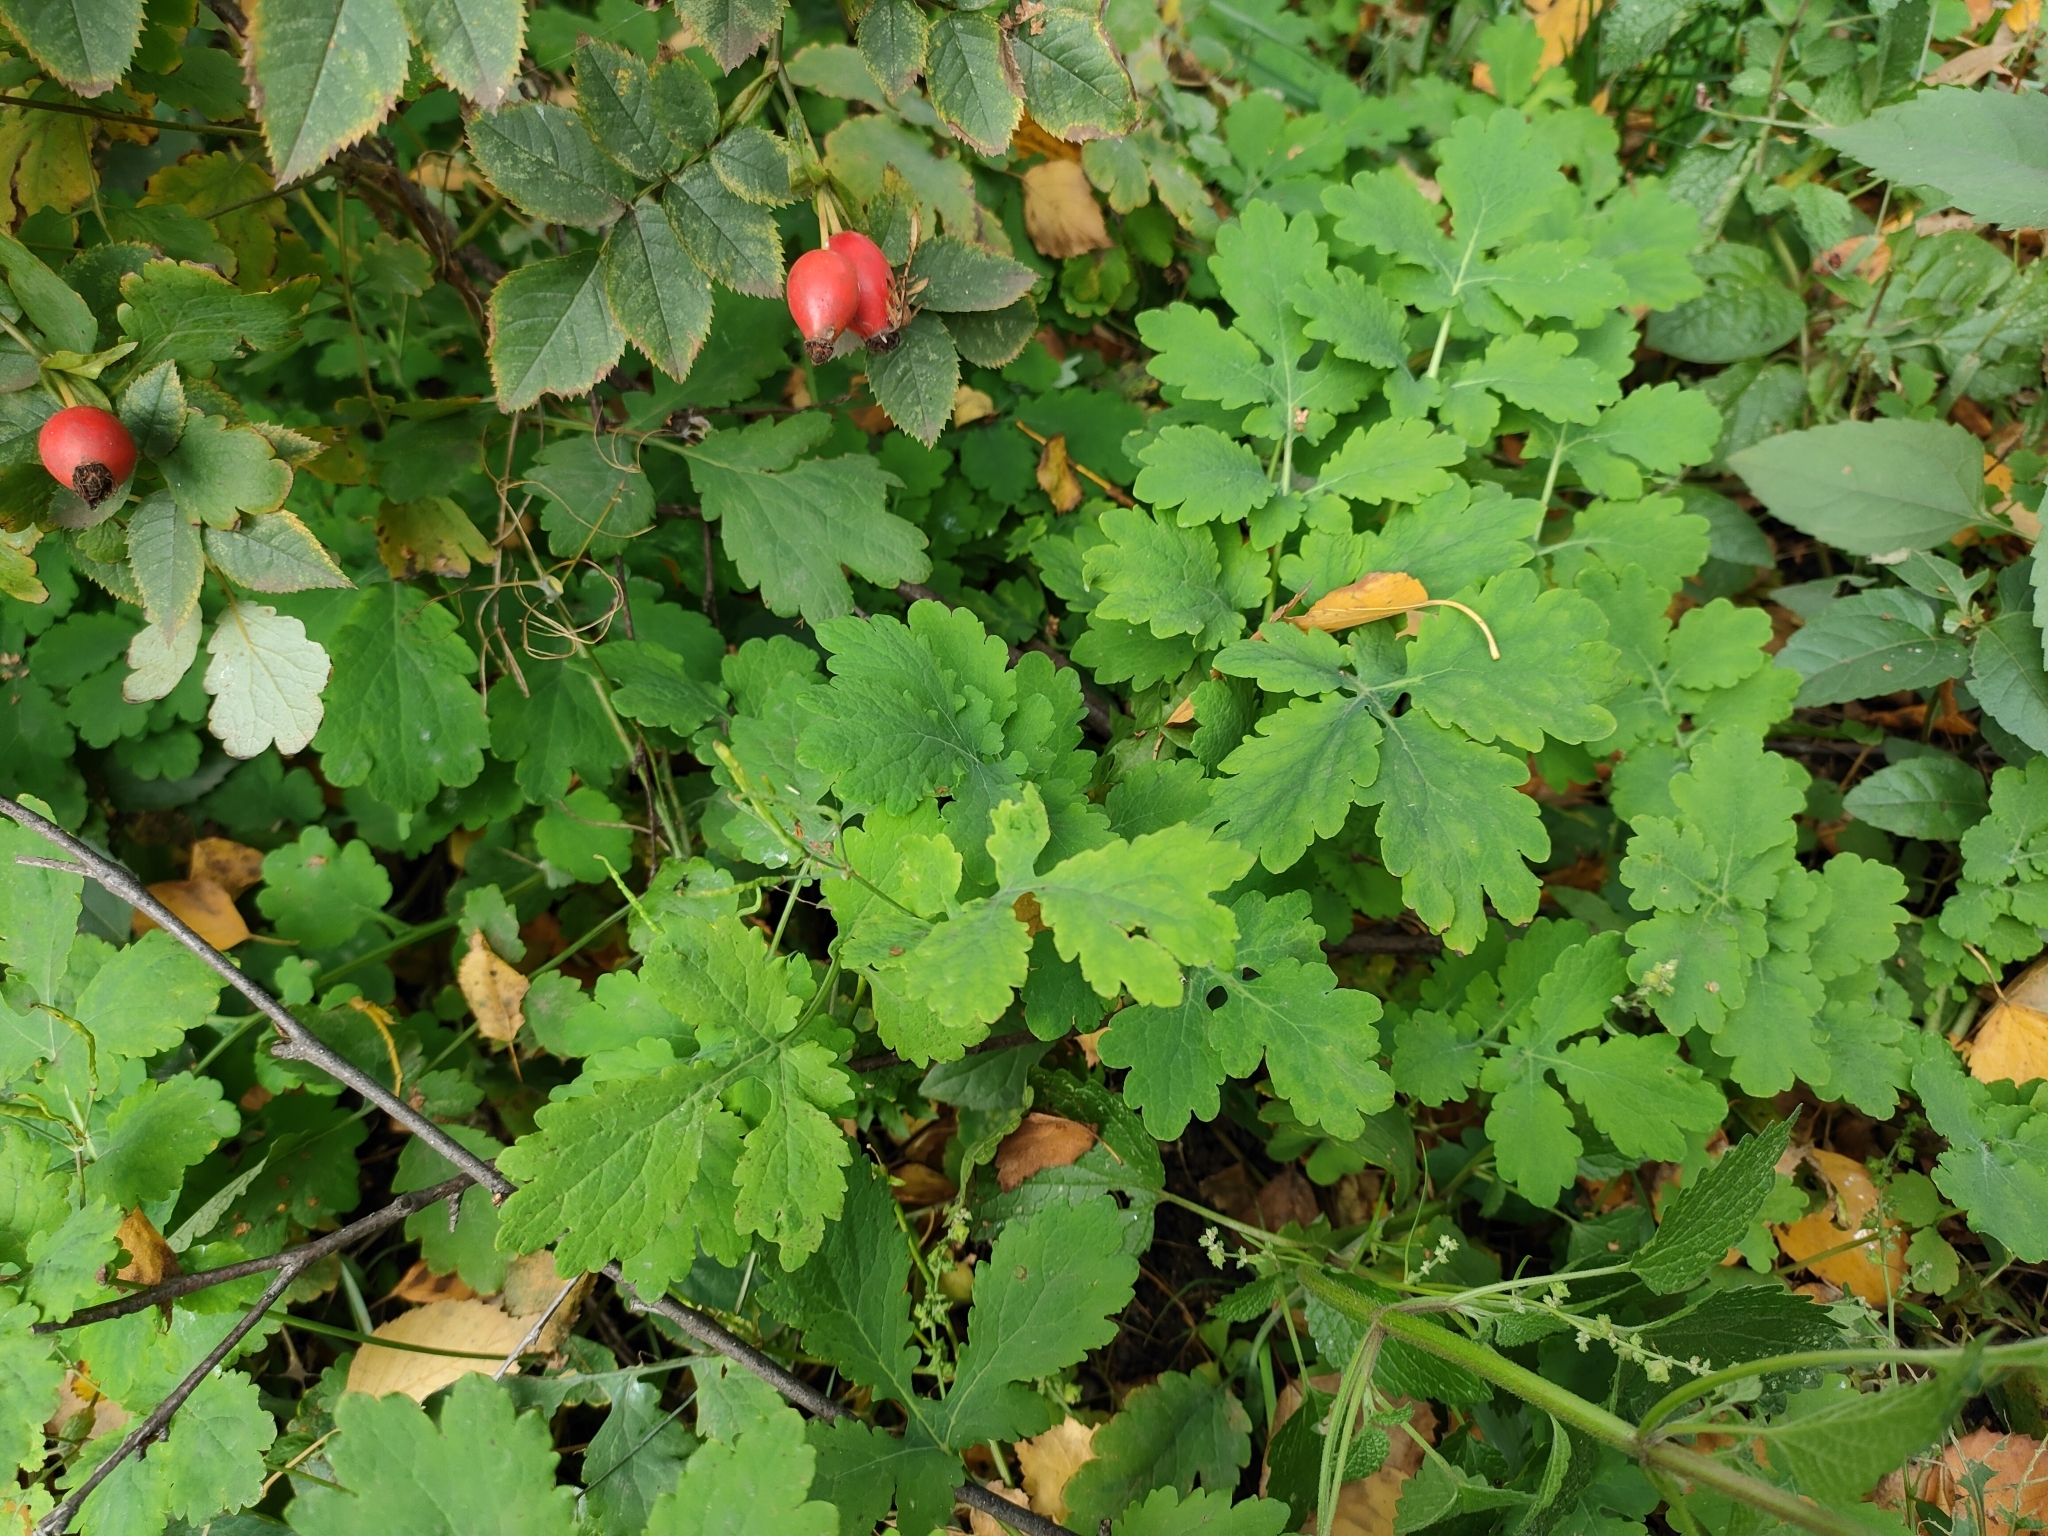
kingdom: Plantae
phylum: Tracheophyta
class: Magnoliopsida
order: Ranunculales
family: Papaveraceae
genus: Chelidonium
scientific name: Chelidonium majus
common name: Greater celandine
